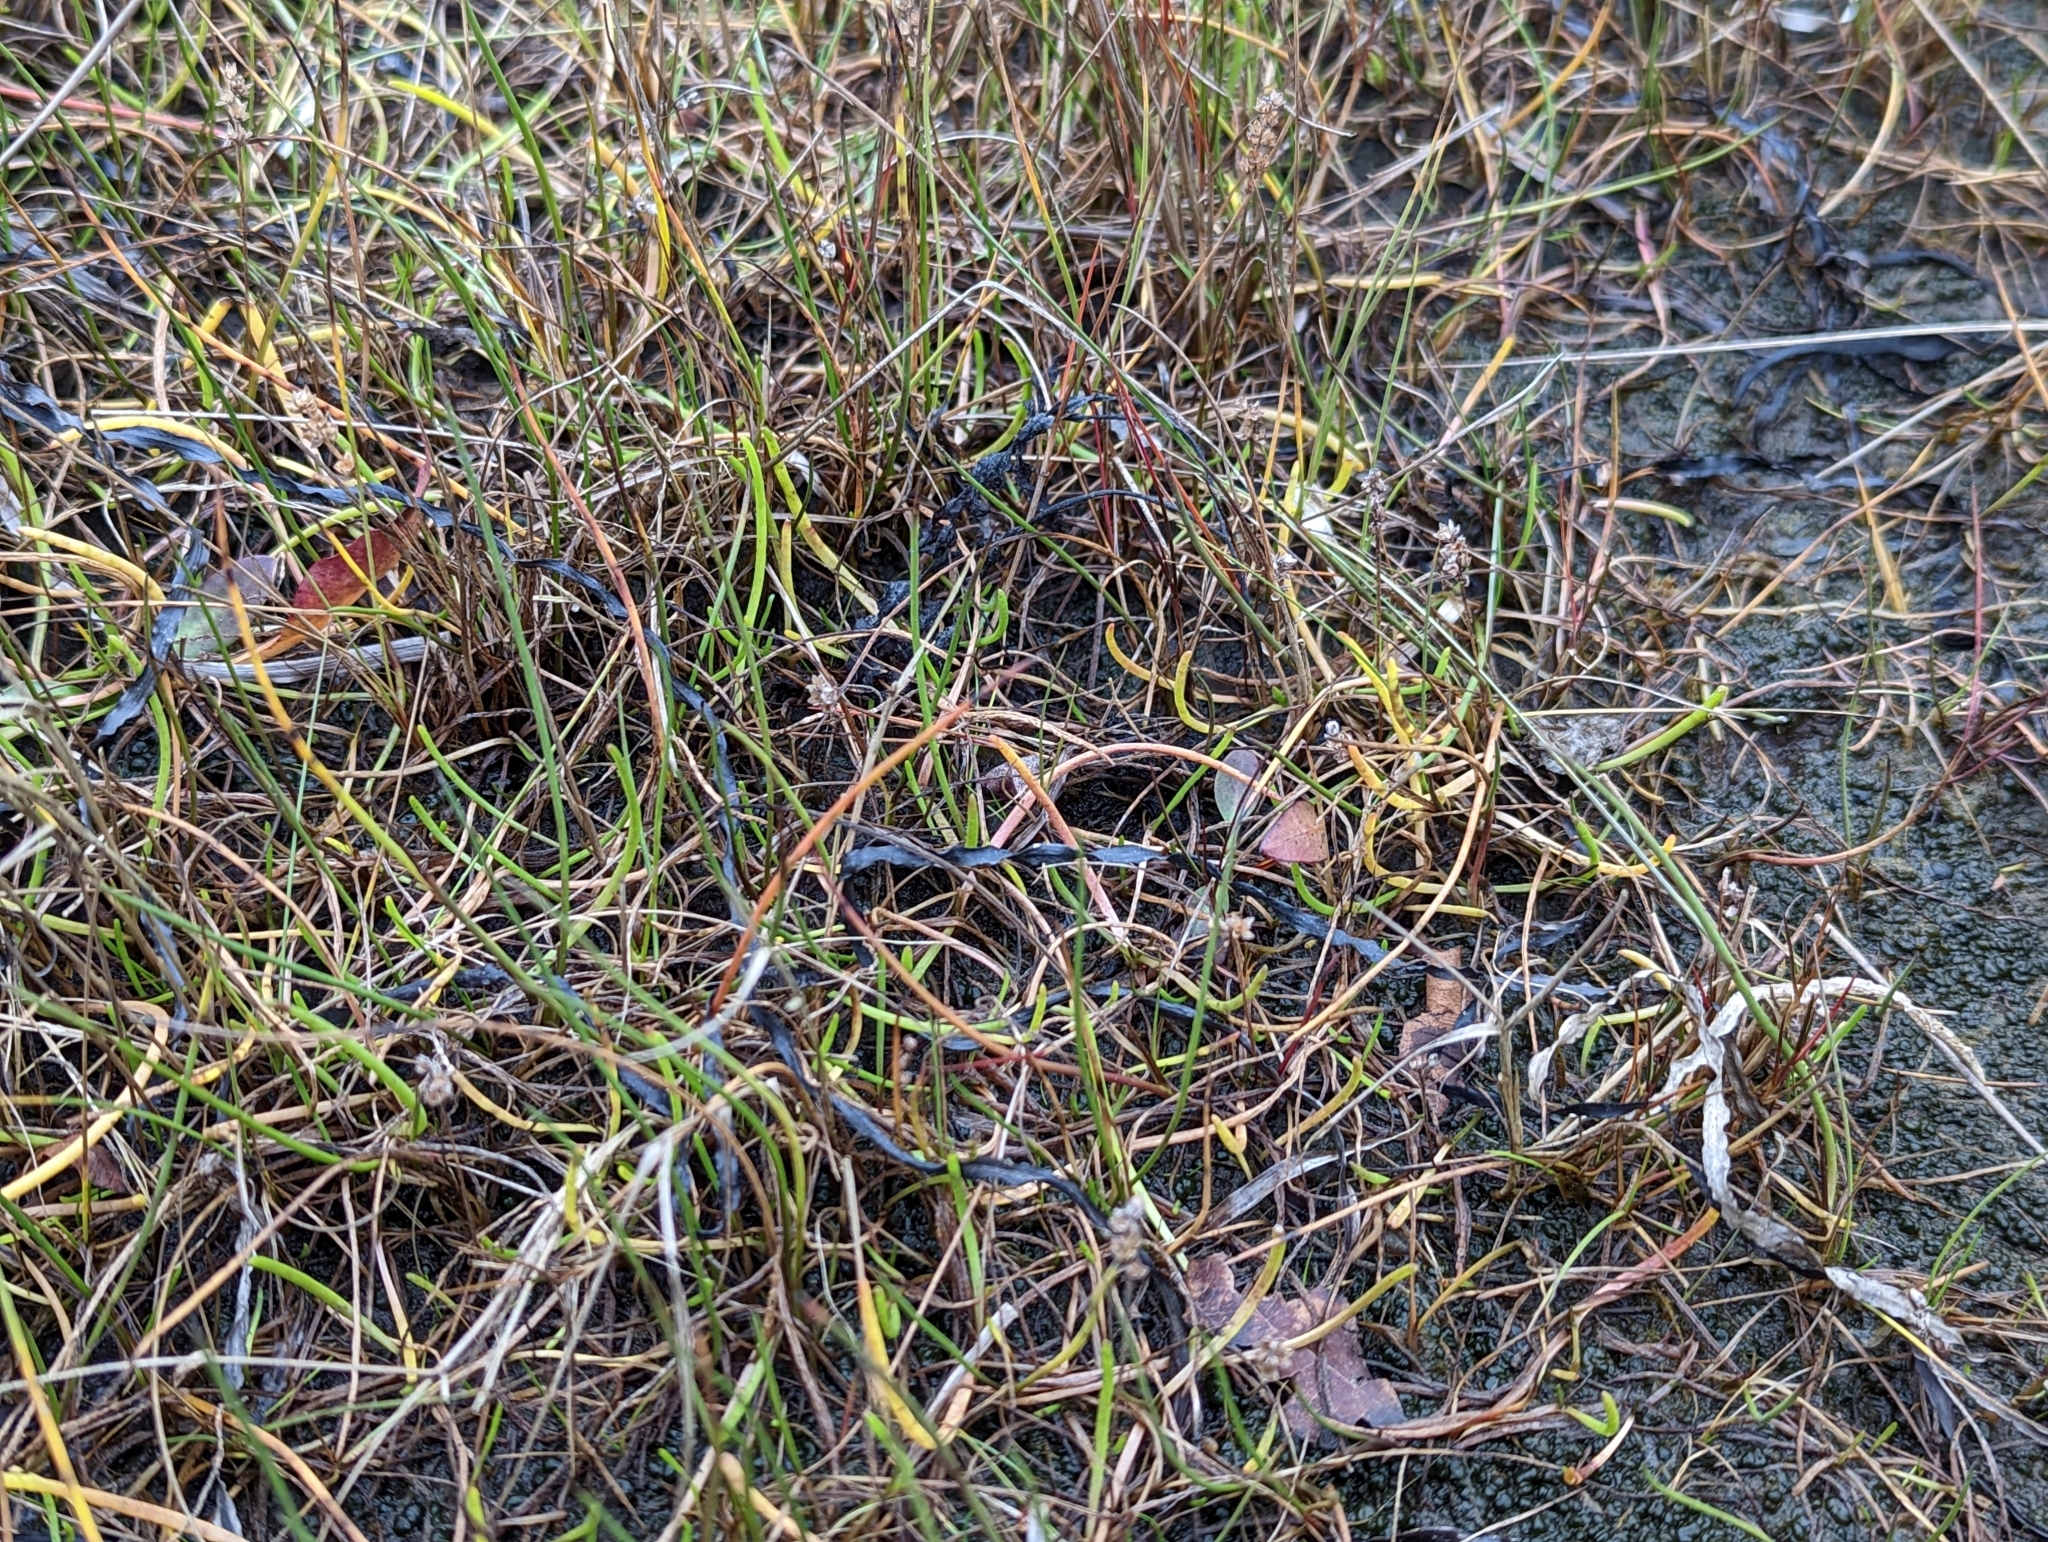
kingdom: Plantae
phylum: Tracheophyta
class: Pinopsida
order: Pinales
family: Cupressaceae
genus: Juniperus
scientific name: Juniperus communis
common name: Common juniper
